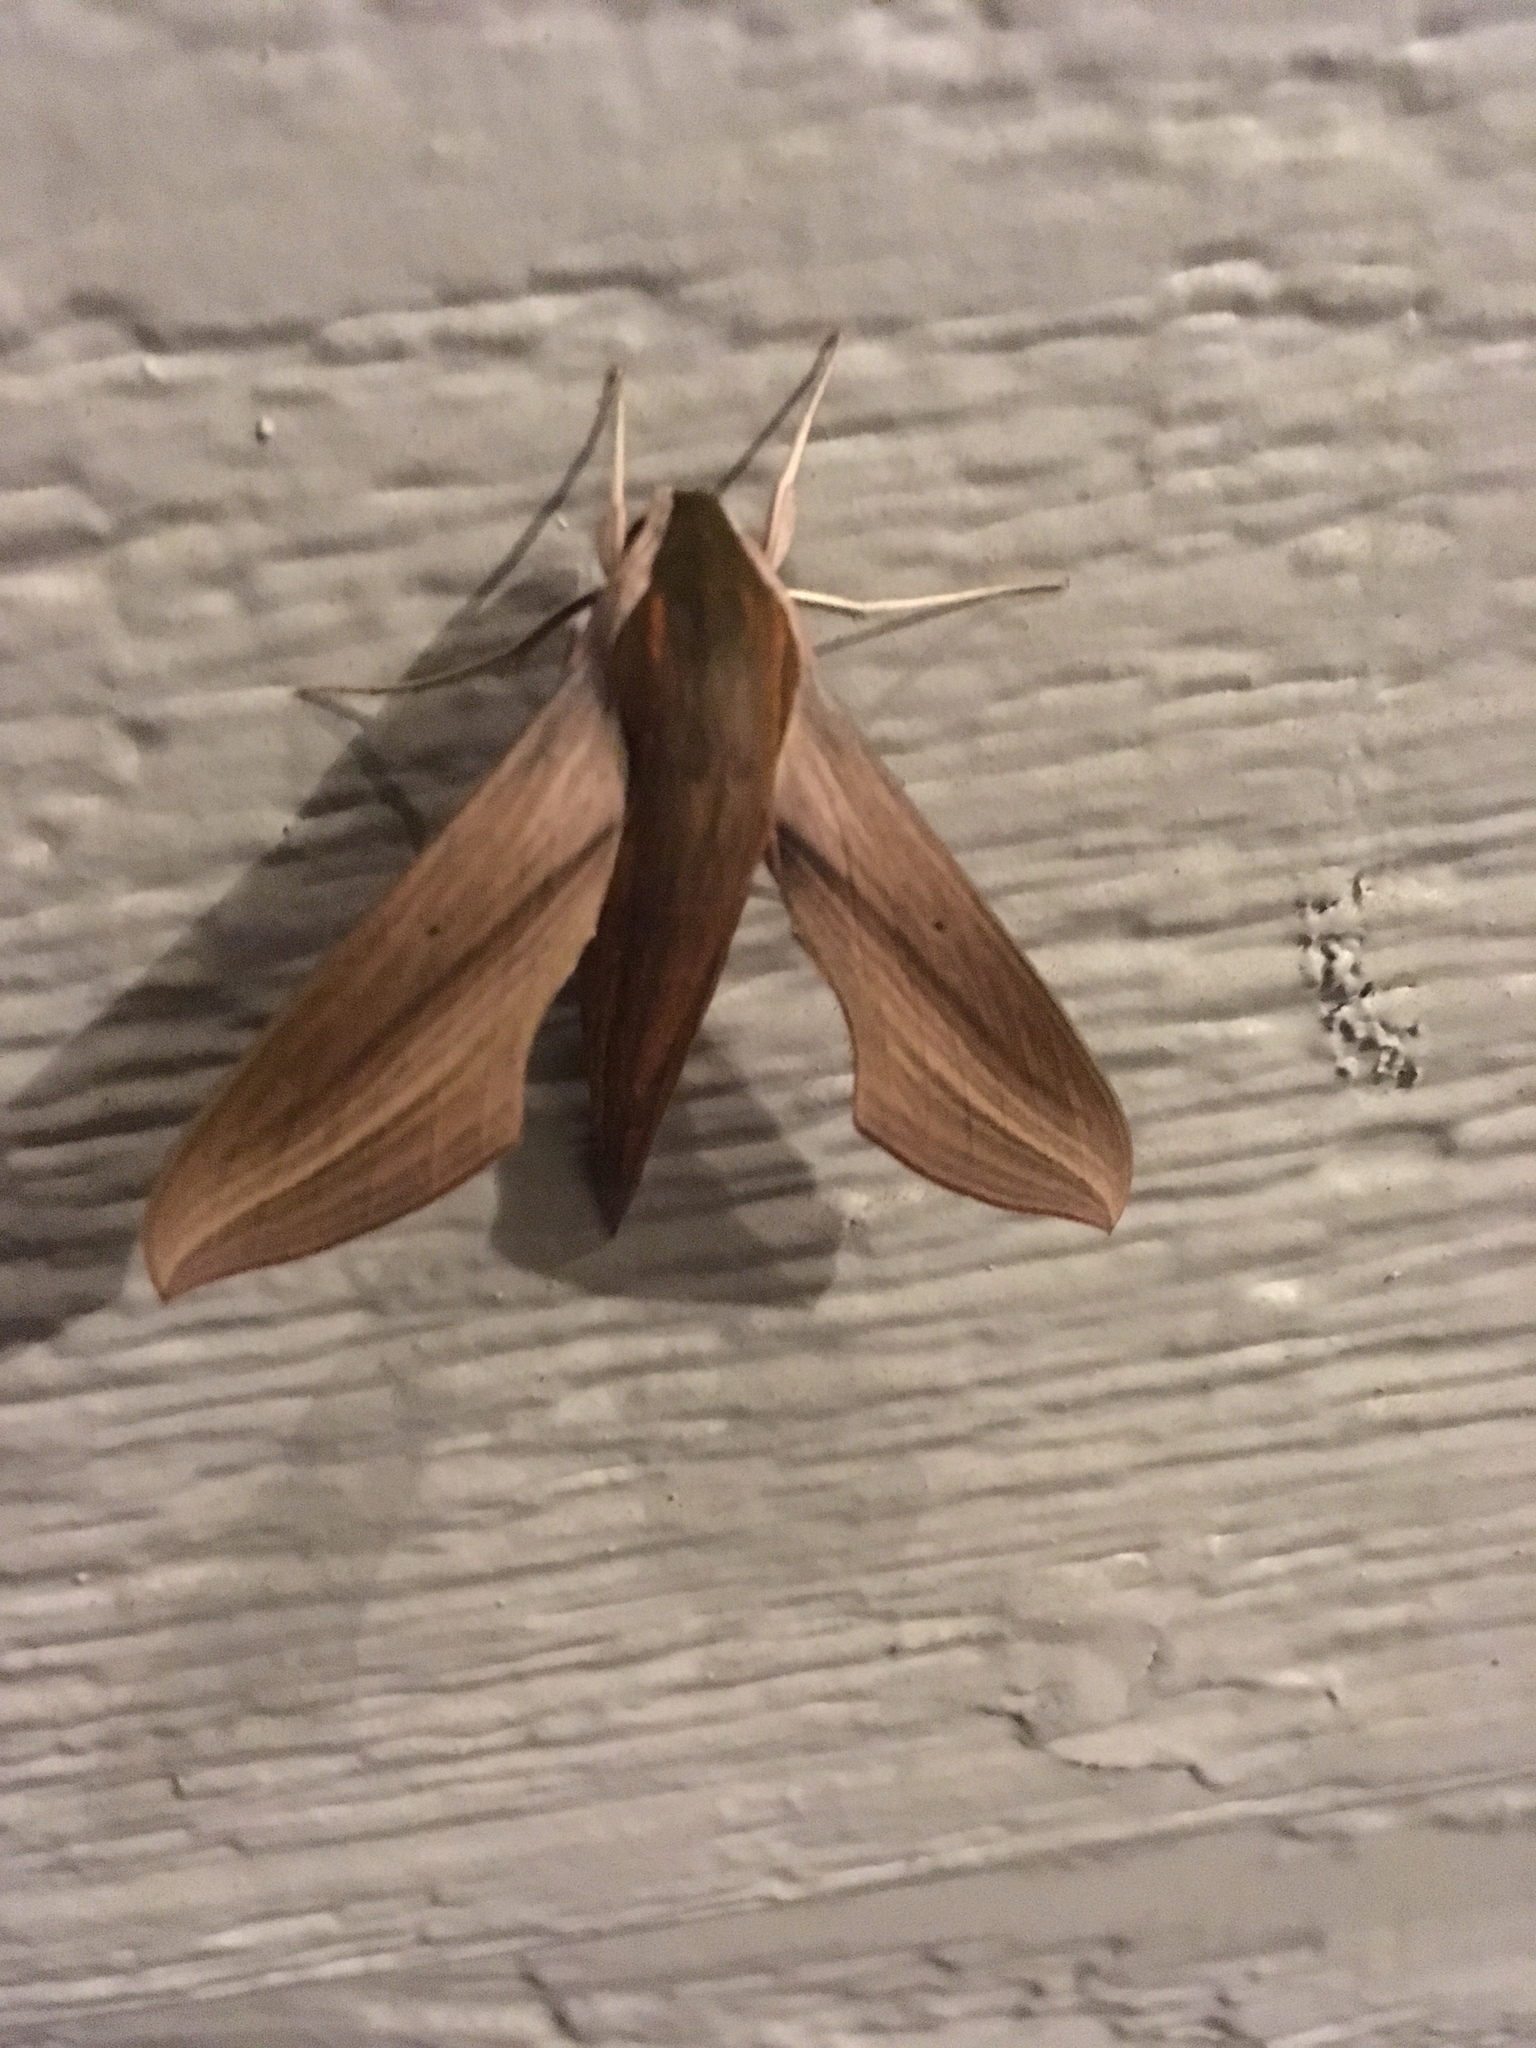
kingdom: Animalia
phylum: Arthropoda
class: Insecta
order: Lepidoptera
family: Sphingidae
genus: Xylophanes
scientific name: Xylophanes tersa
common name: Tersa sphinx
